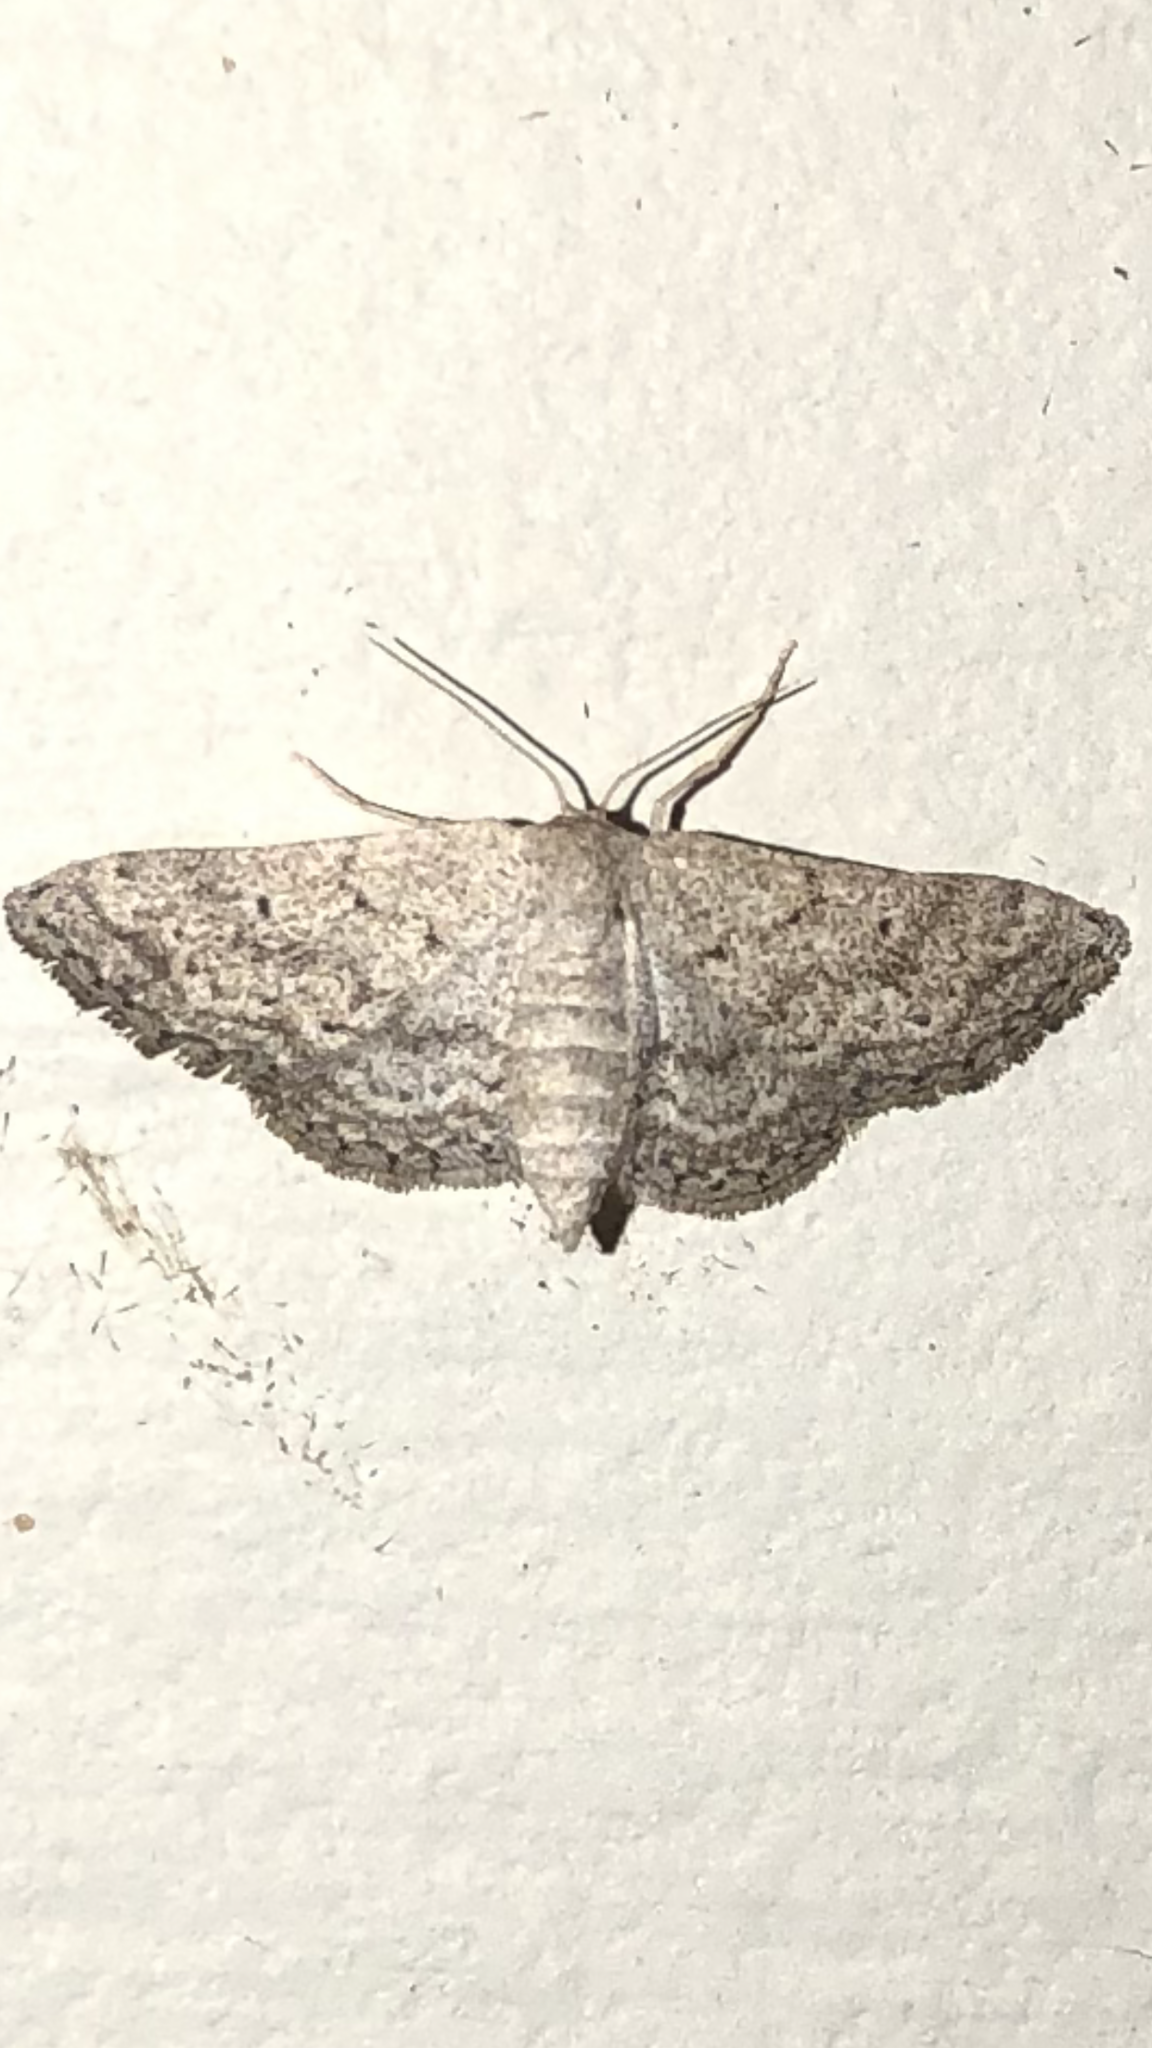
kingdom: Animalia
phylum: Arthropoda
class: Insecta
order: Lepidoptera
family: Geometridae
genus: Lobocleta
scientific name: Lobocleta ossularia
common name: Drab brown wave
